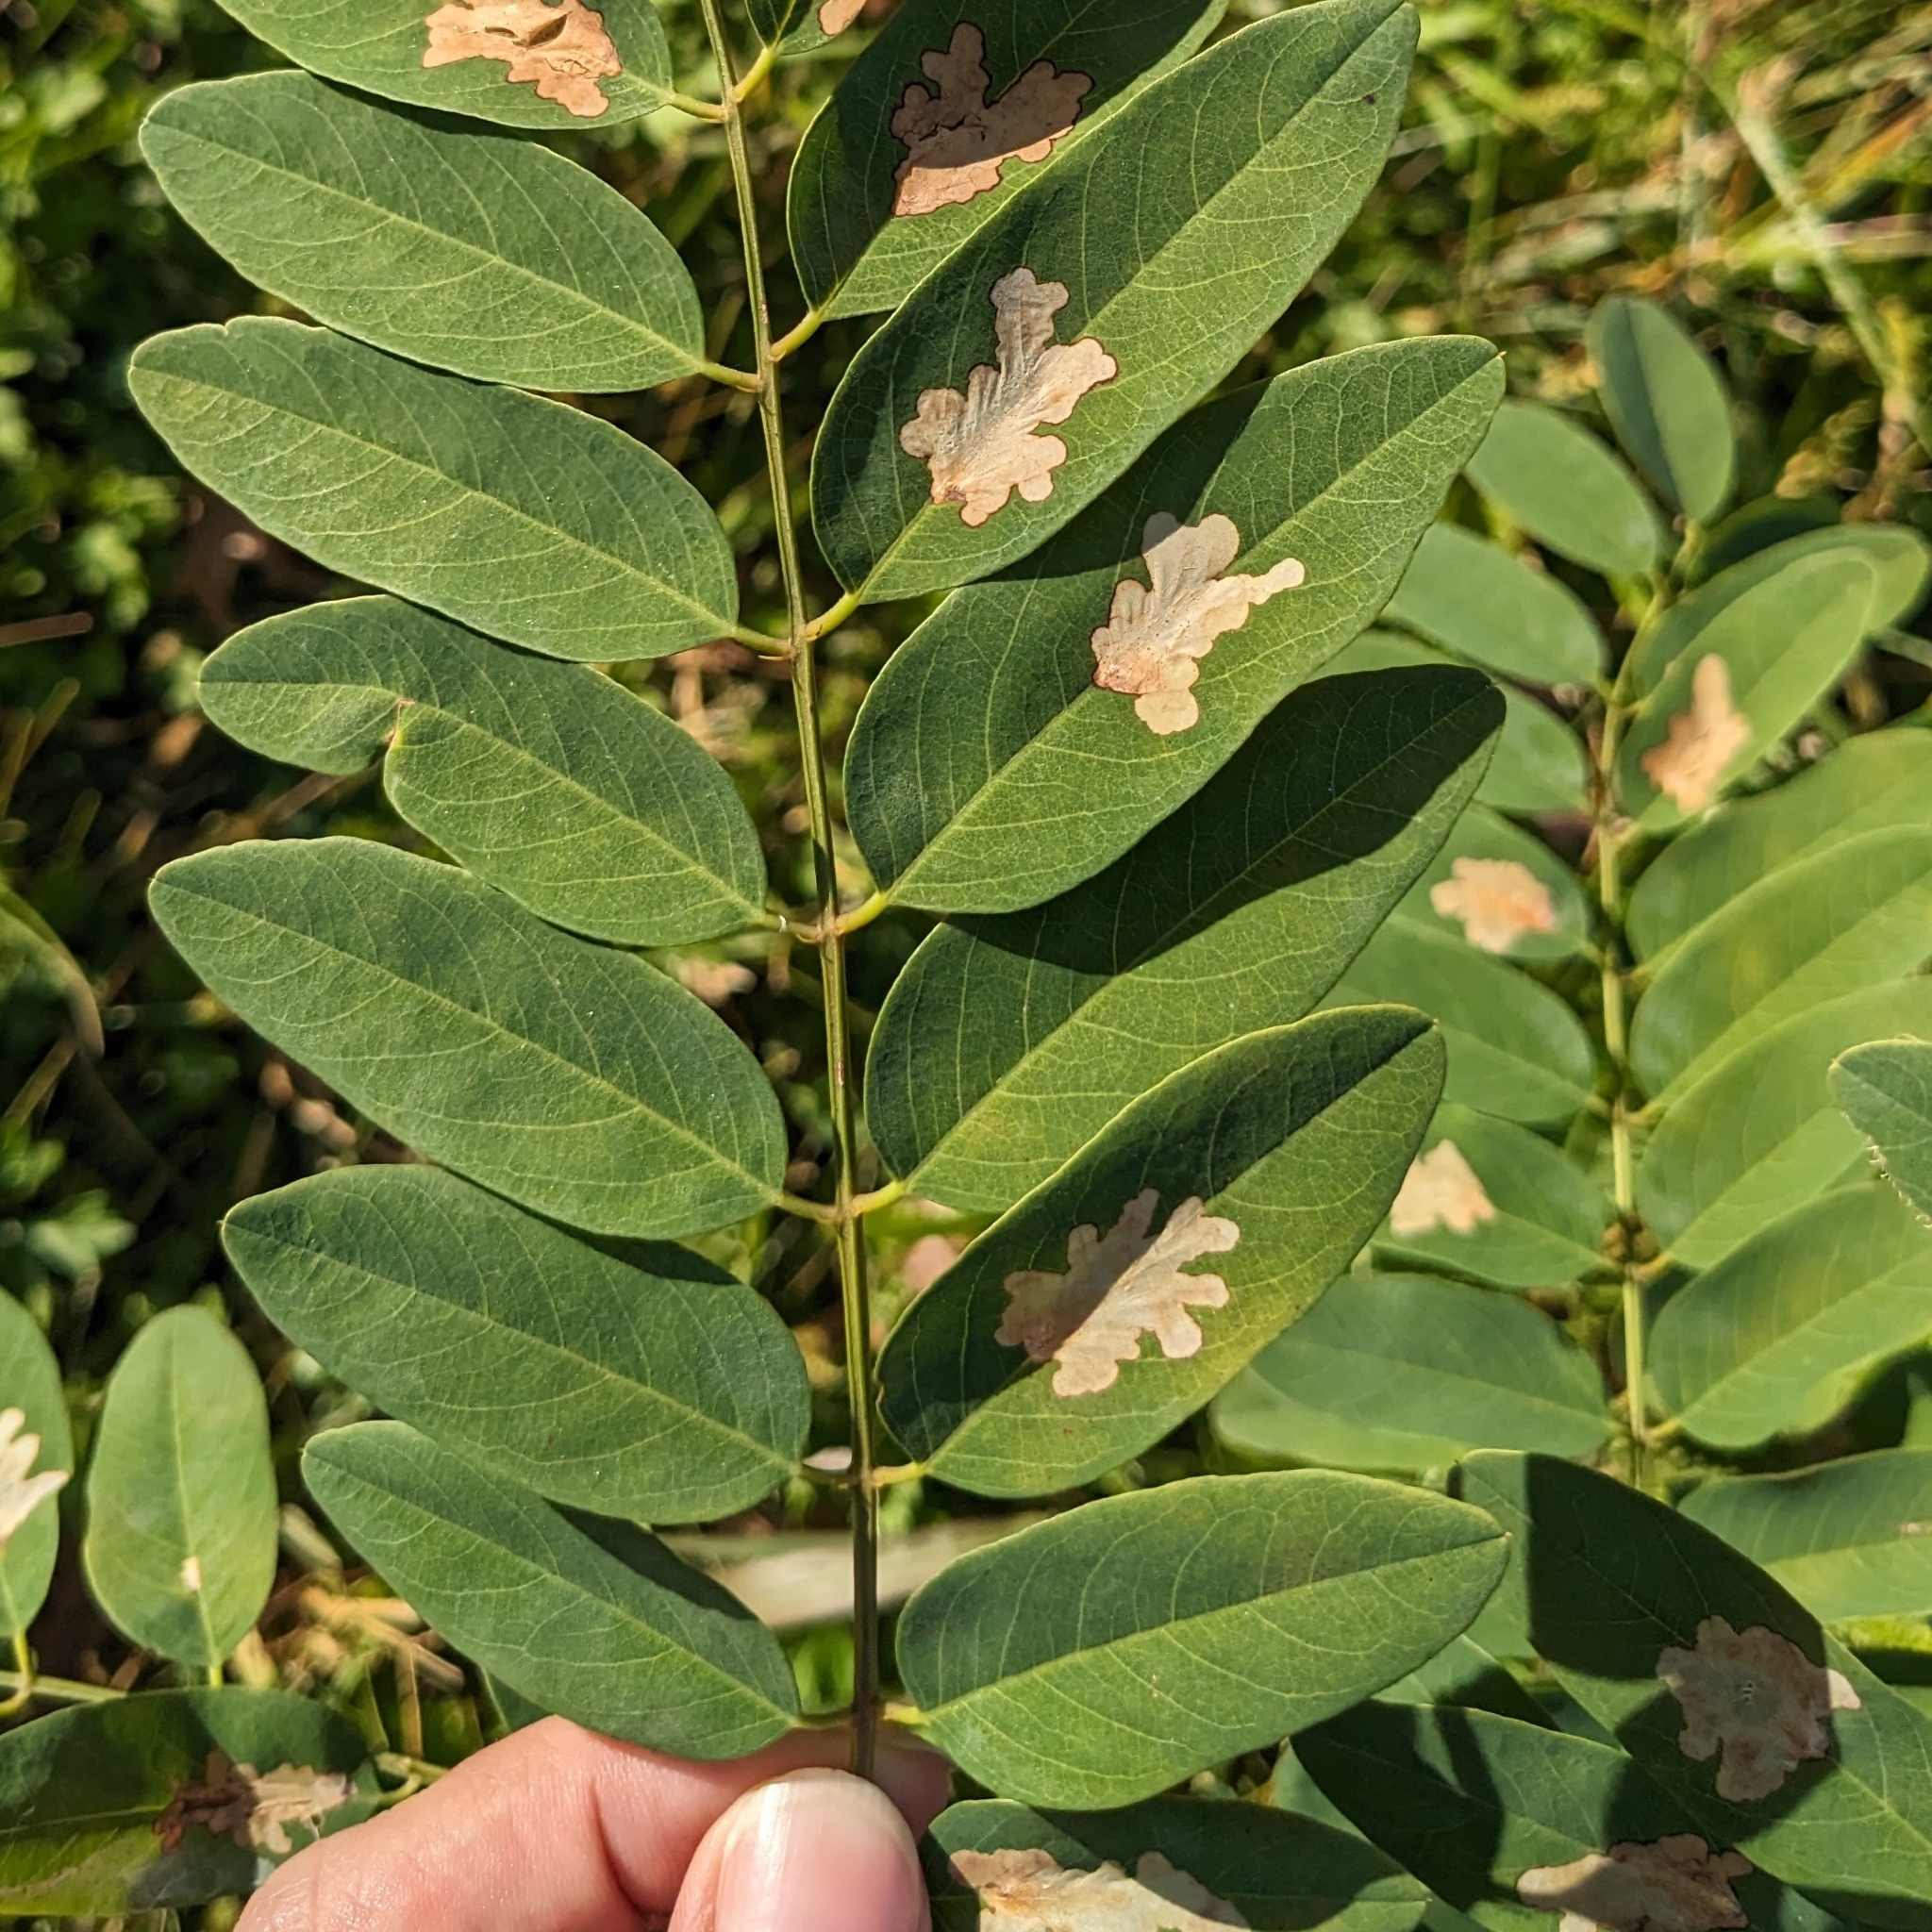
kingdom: Animalia
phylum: Arthropoda
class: Insecta
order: Lepidoptera
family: Gracillariidae
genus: Parectopa
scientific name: Parectopa robiniella
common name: Locust digitate leafminer
